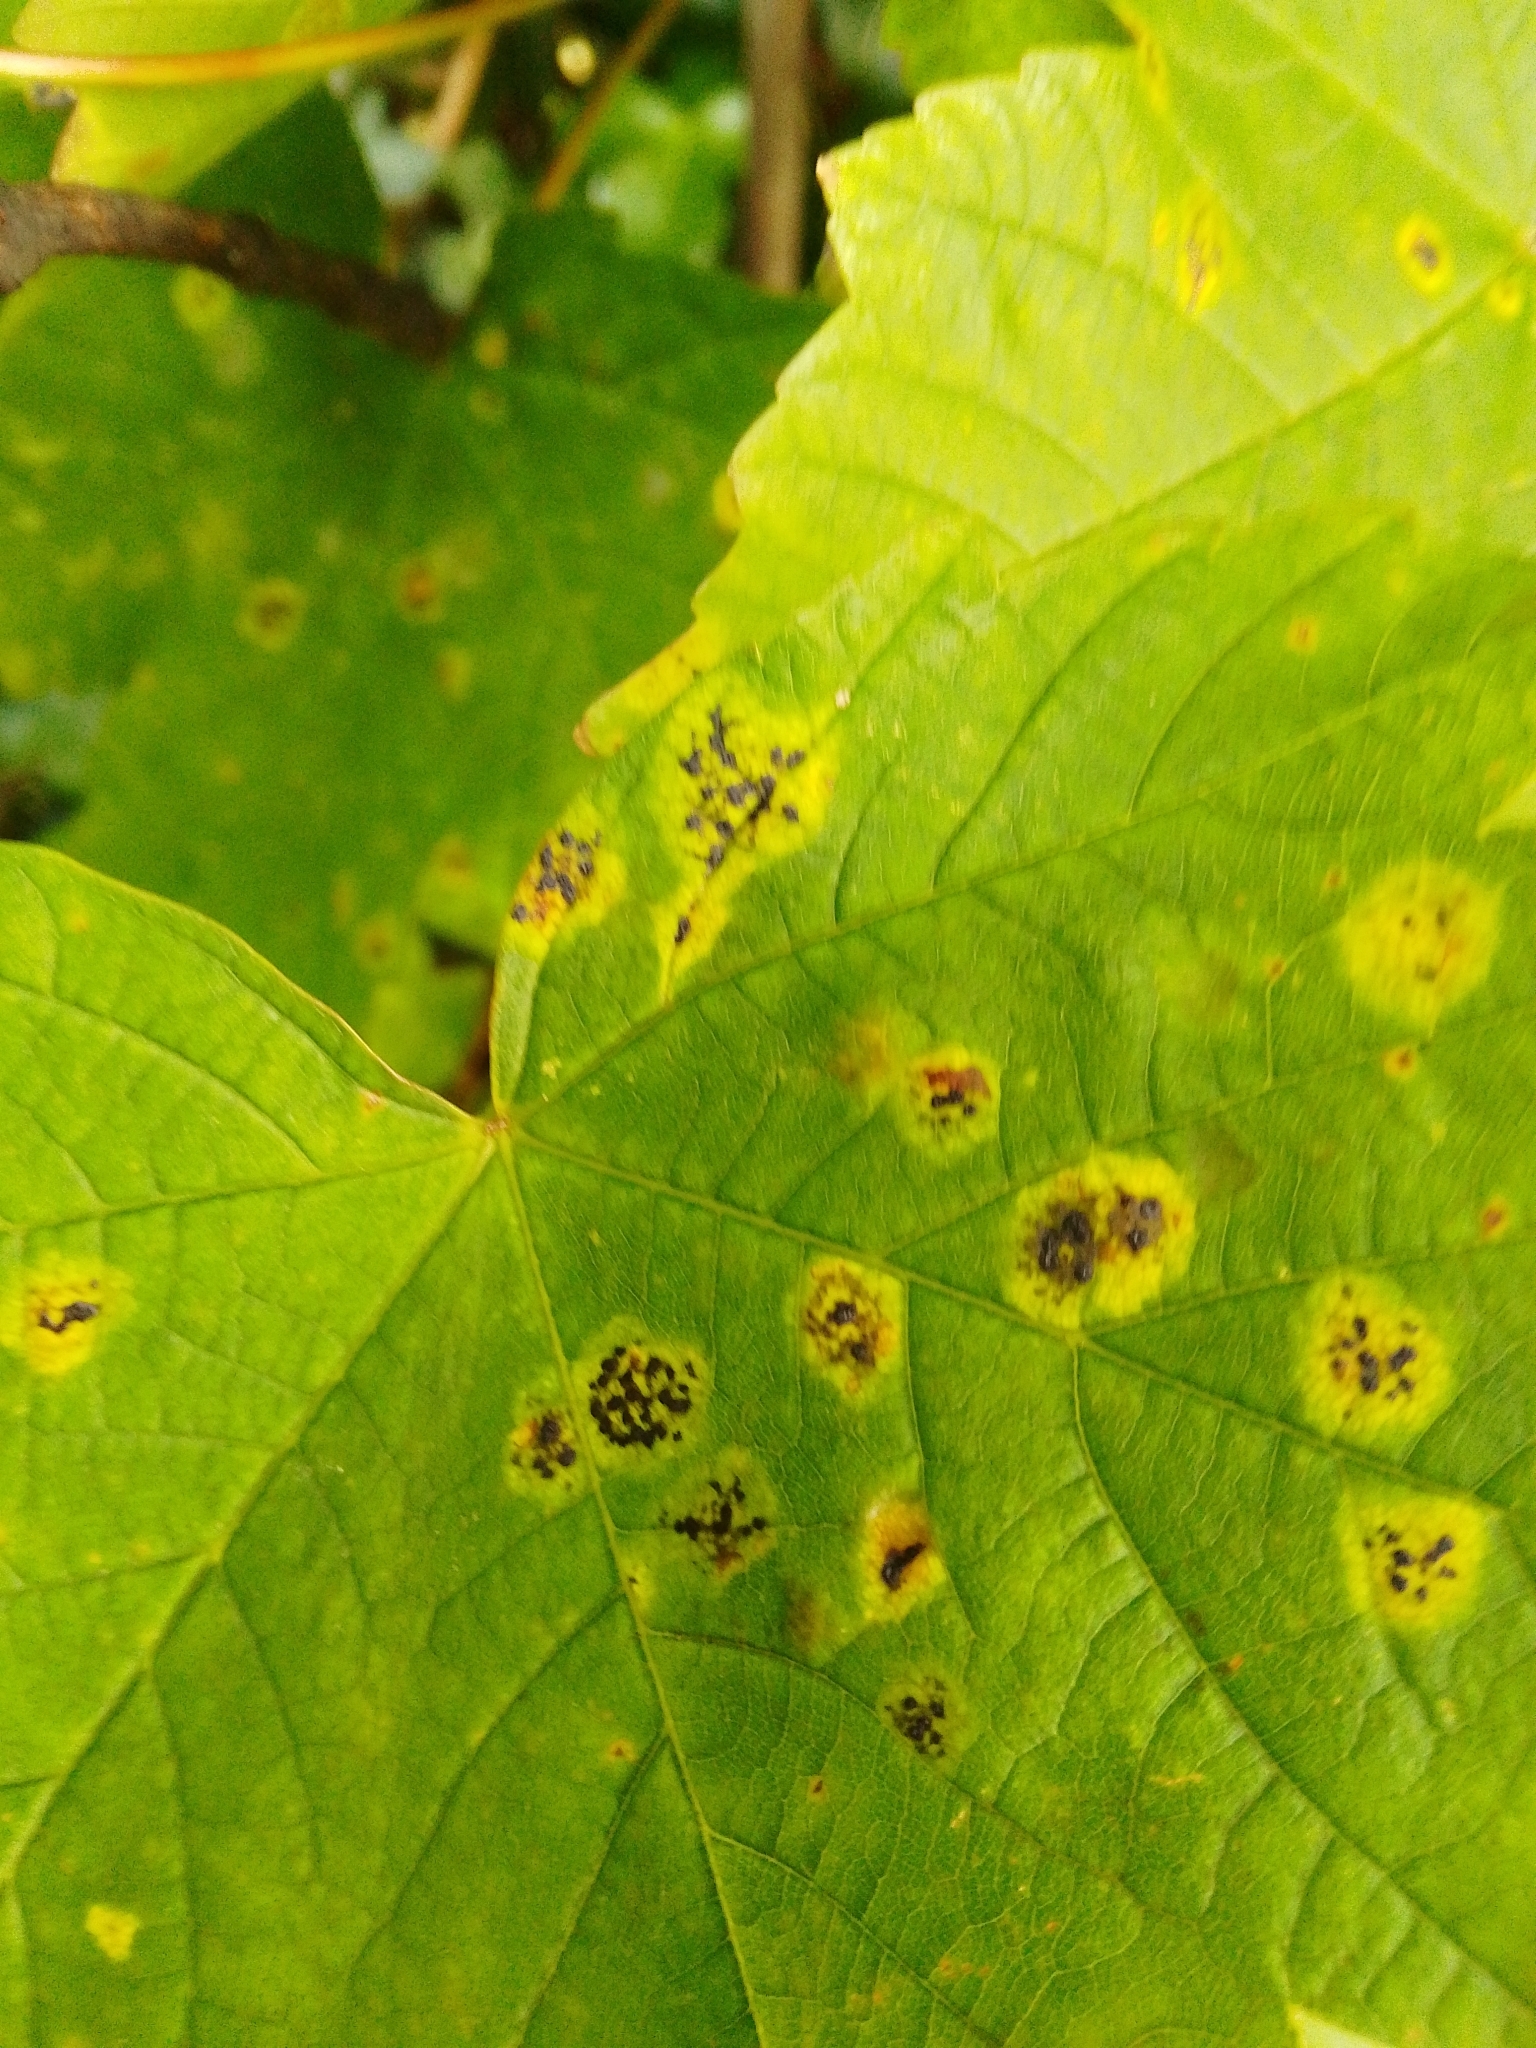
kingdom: Fungi
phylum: Ascomycota
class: Leotiomycetes
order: Rhytismatales
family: Rhytismataceae
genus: Rhytisma
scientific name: Rhytisma acerinum
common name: European tar spot
